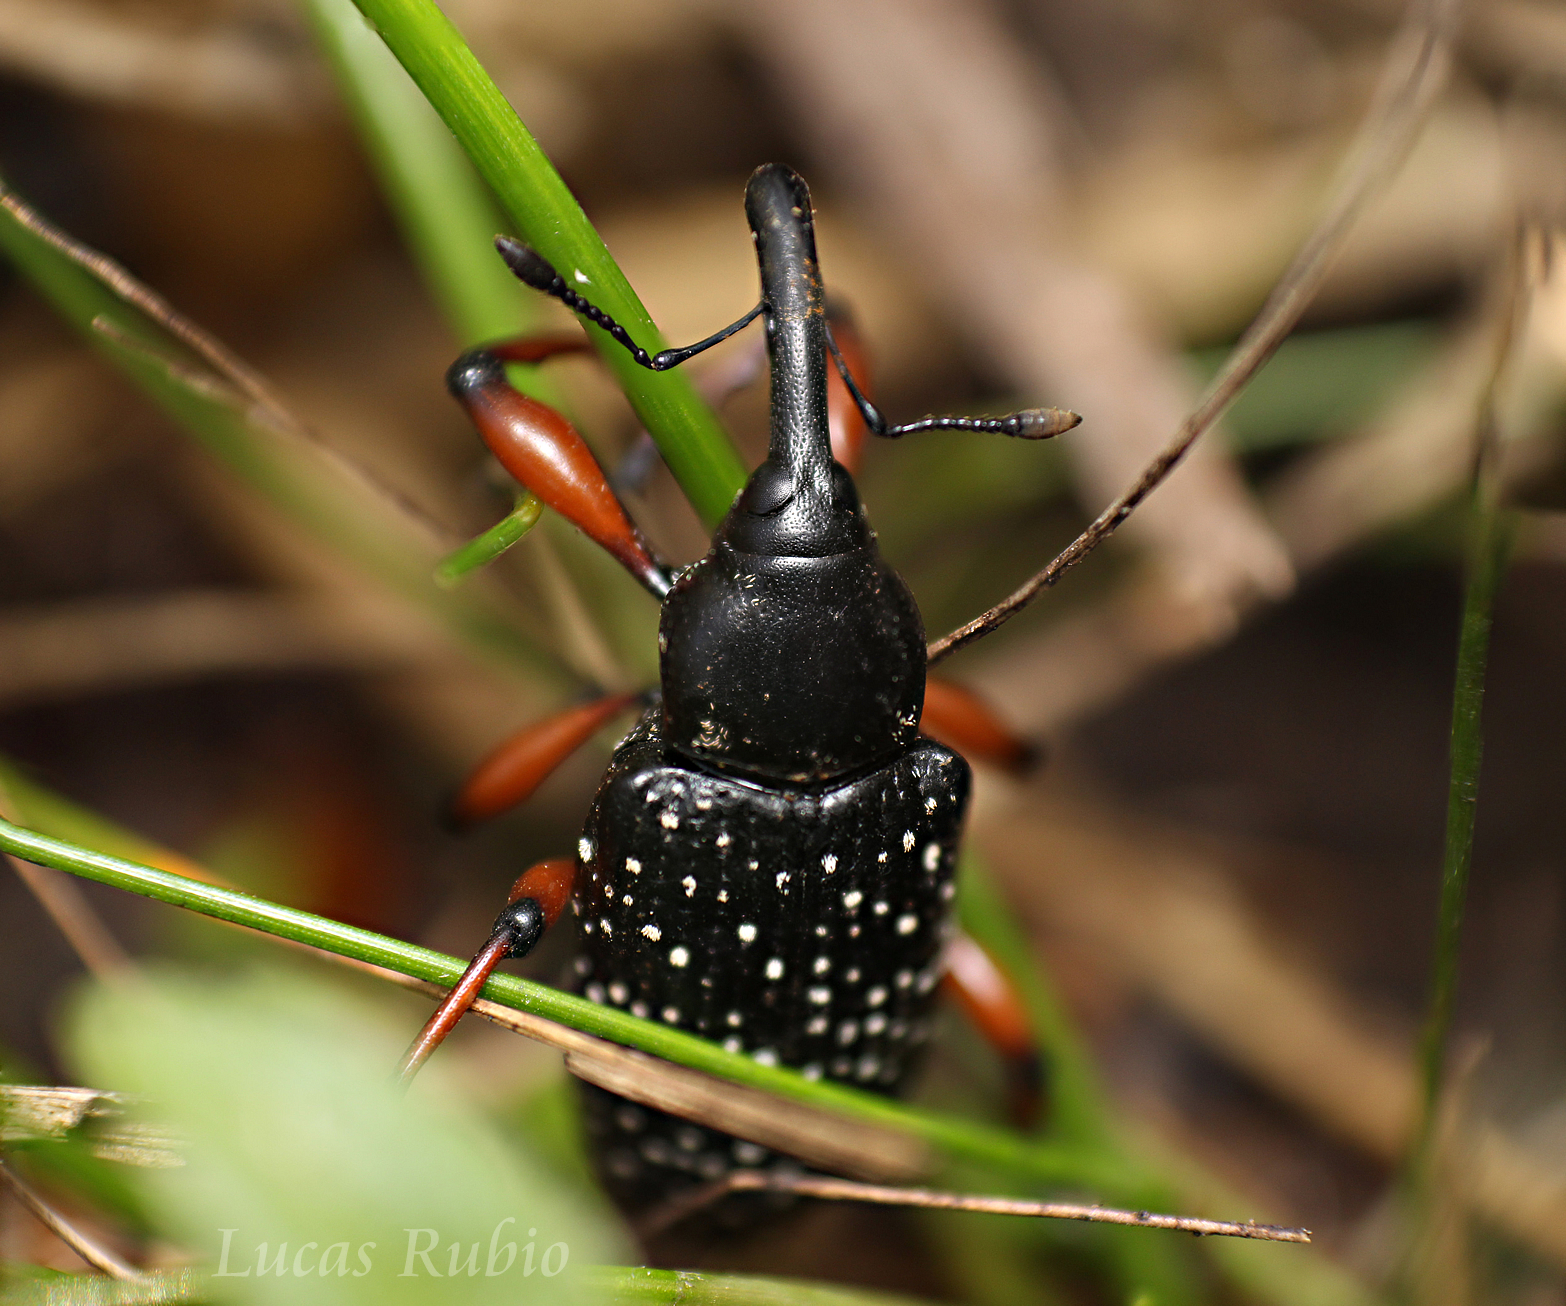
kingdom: Animalia
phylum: Arthropoda
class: Insecta
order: Coleoptera
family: Curculionidae
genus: Heilipodus
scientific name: Heilipodus erythropus
